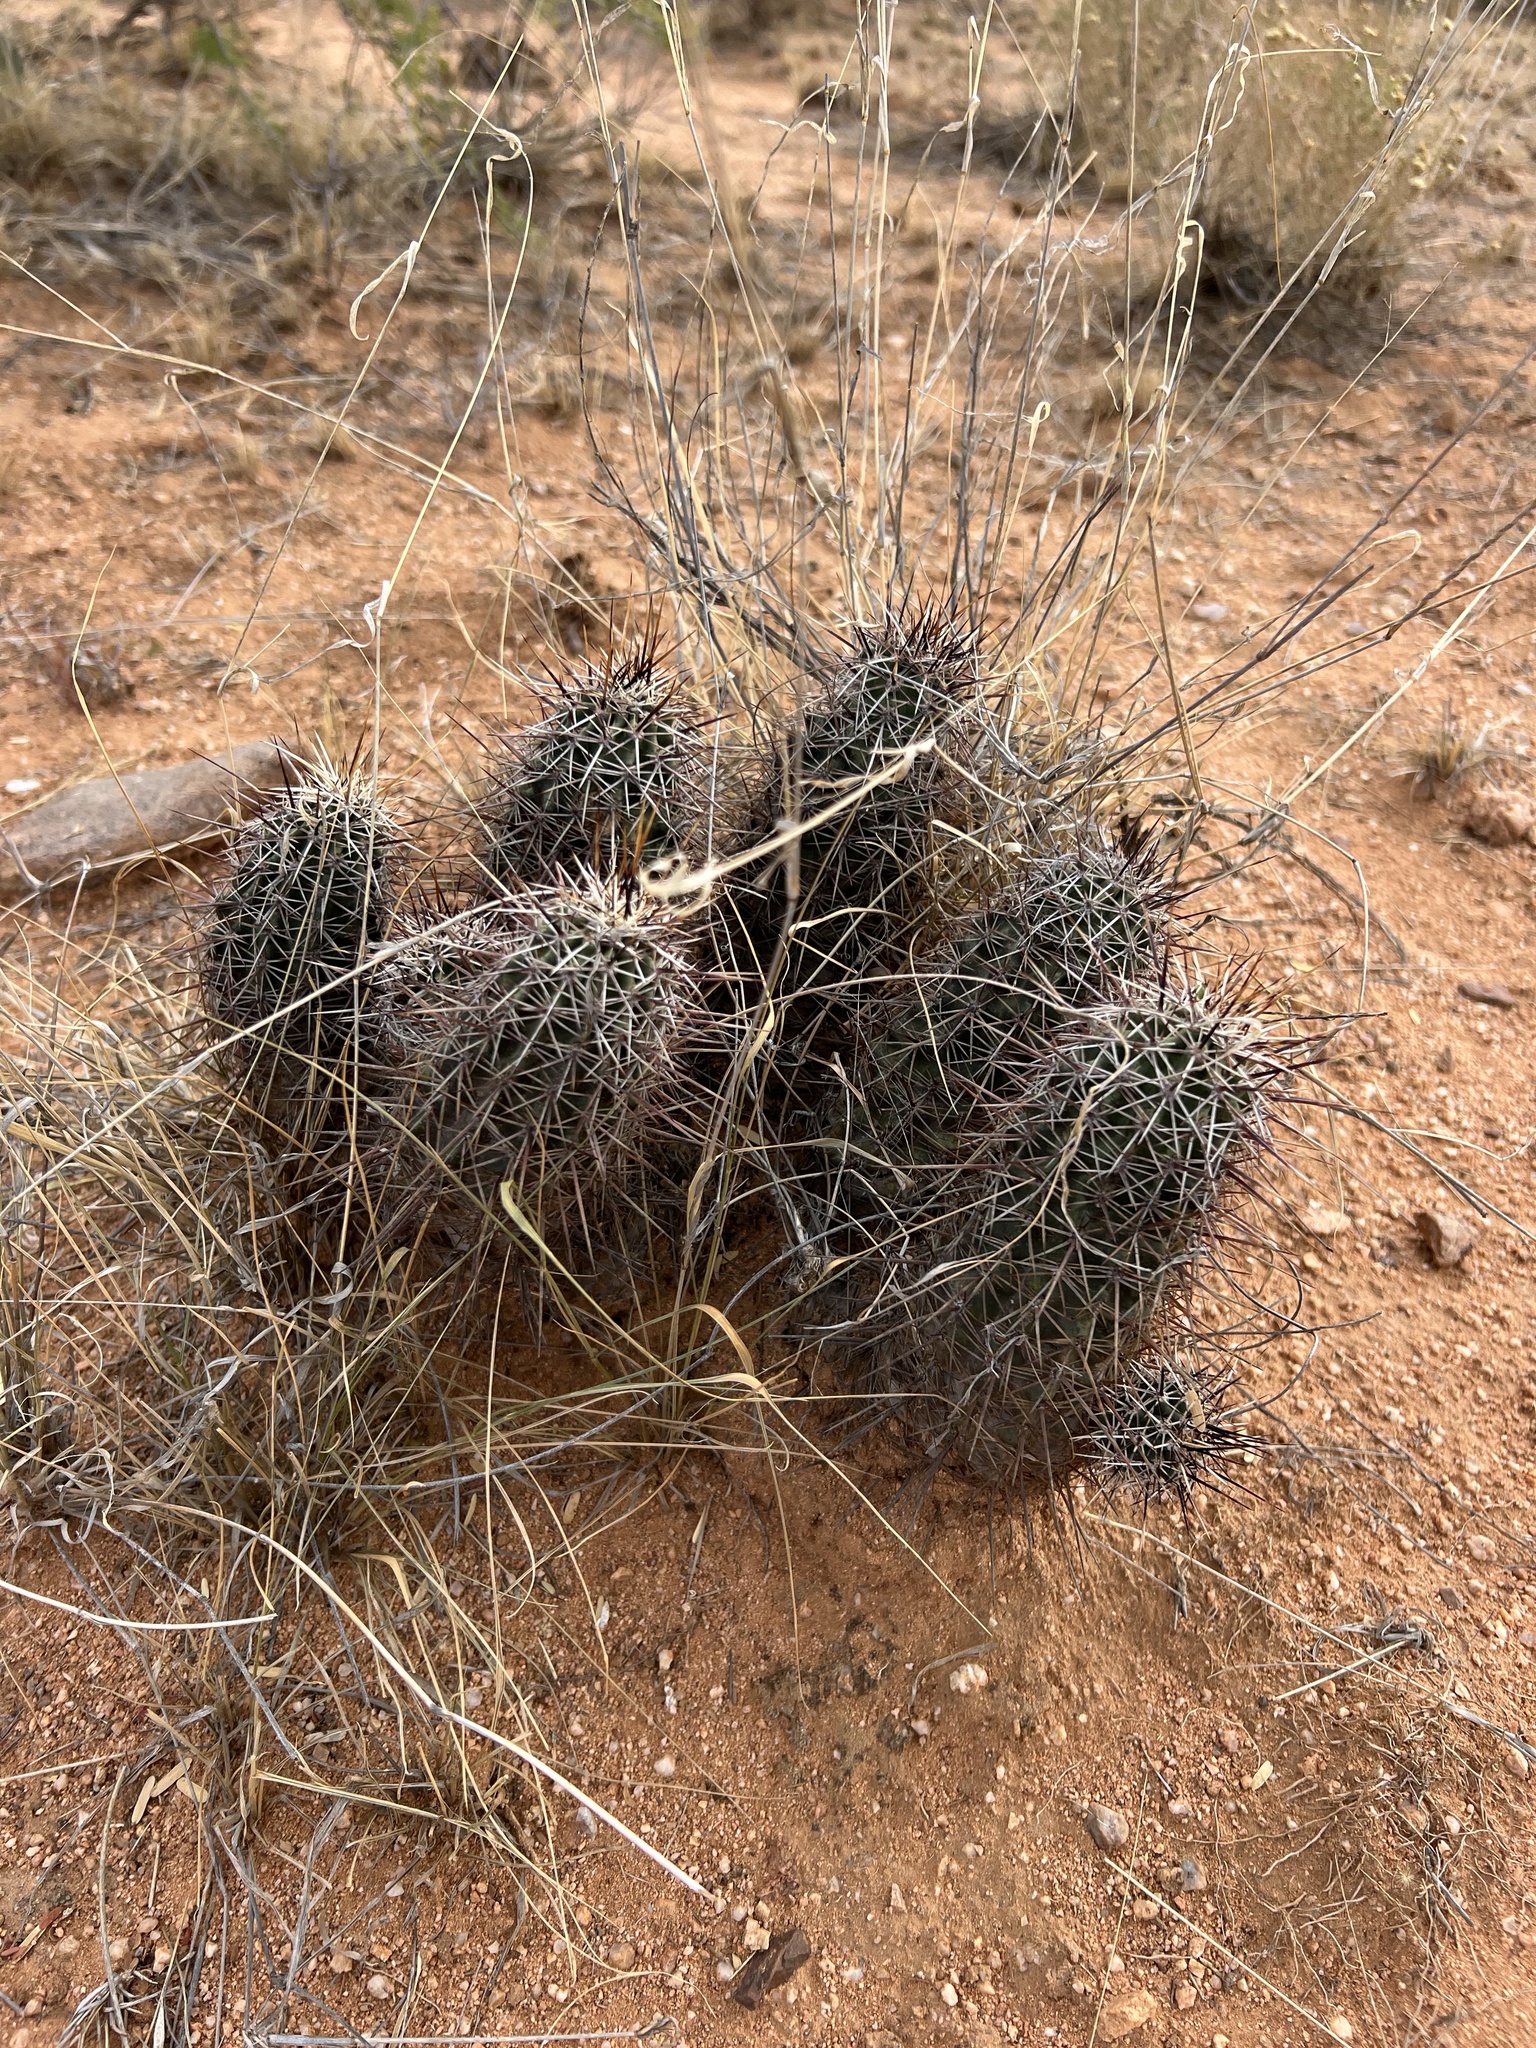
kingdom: Plantae
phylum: Tracheophyta
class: Magnoliopsida
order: Caryophyllales
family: Cactaceae
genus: Echinocereus
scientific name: Echinocereus fasciculatus
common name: Bundle hedgehog
